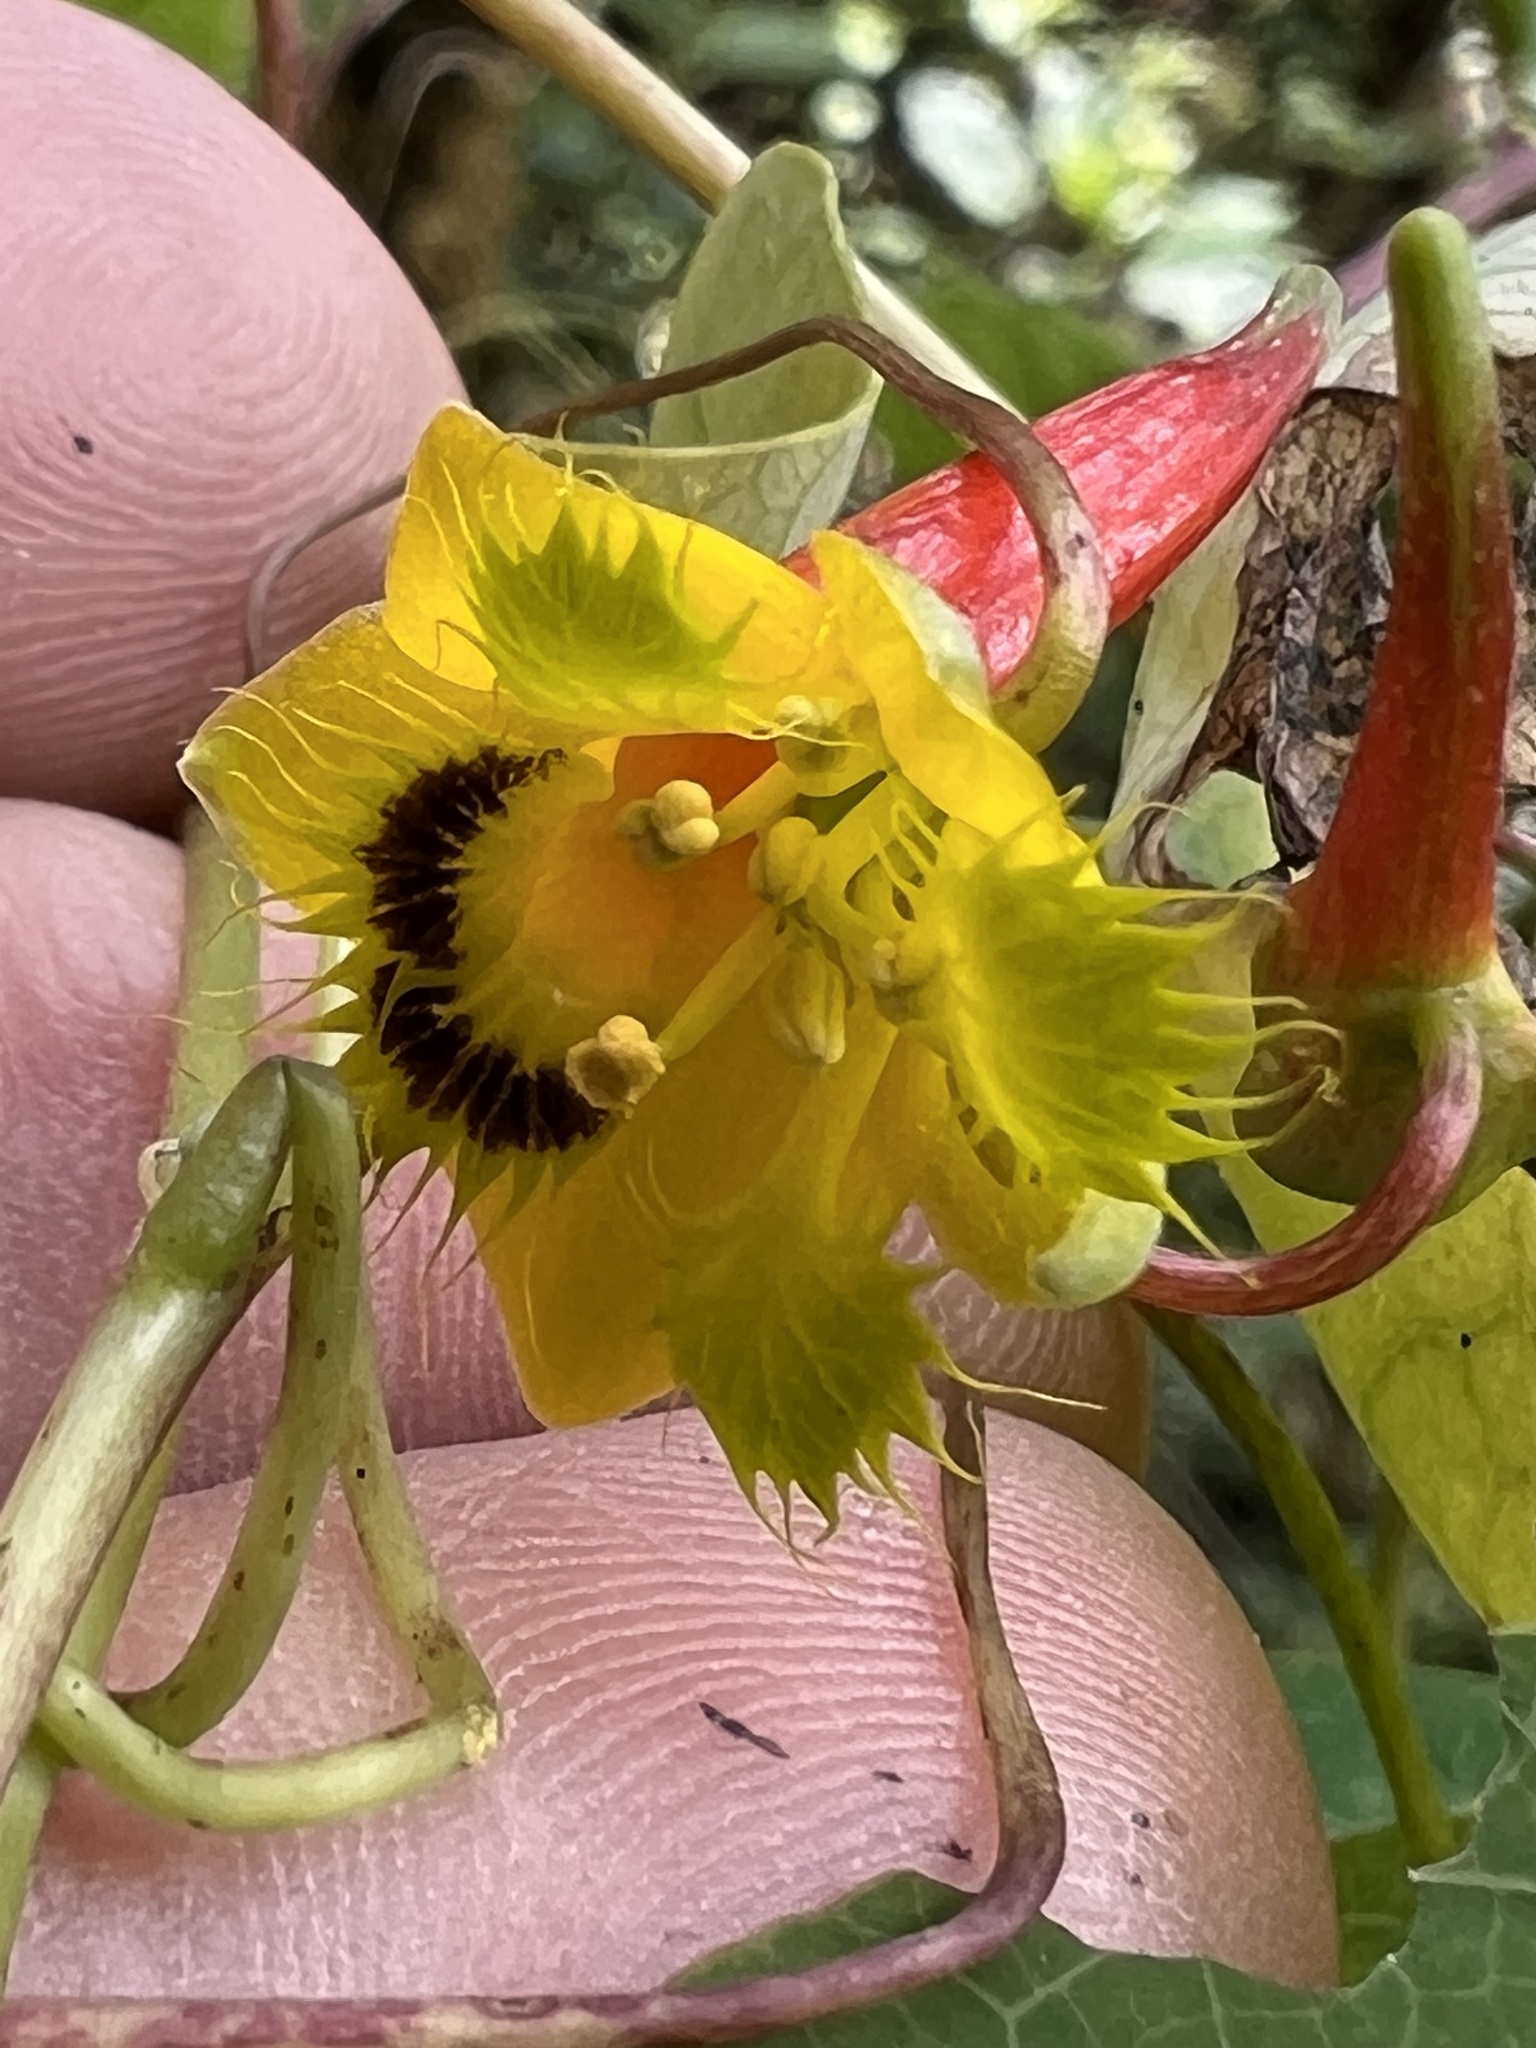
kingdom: Plantae
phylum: Tracheophyta
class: Magnoliopsida
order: Brassicales
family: Tropaeolaceae
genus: Tropaeolum
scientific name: Tropaeolum emarginatum
